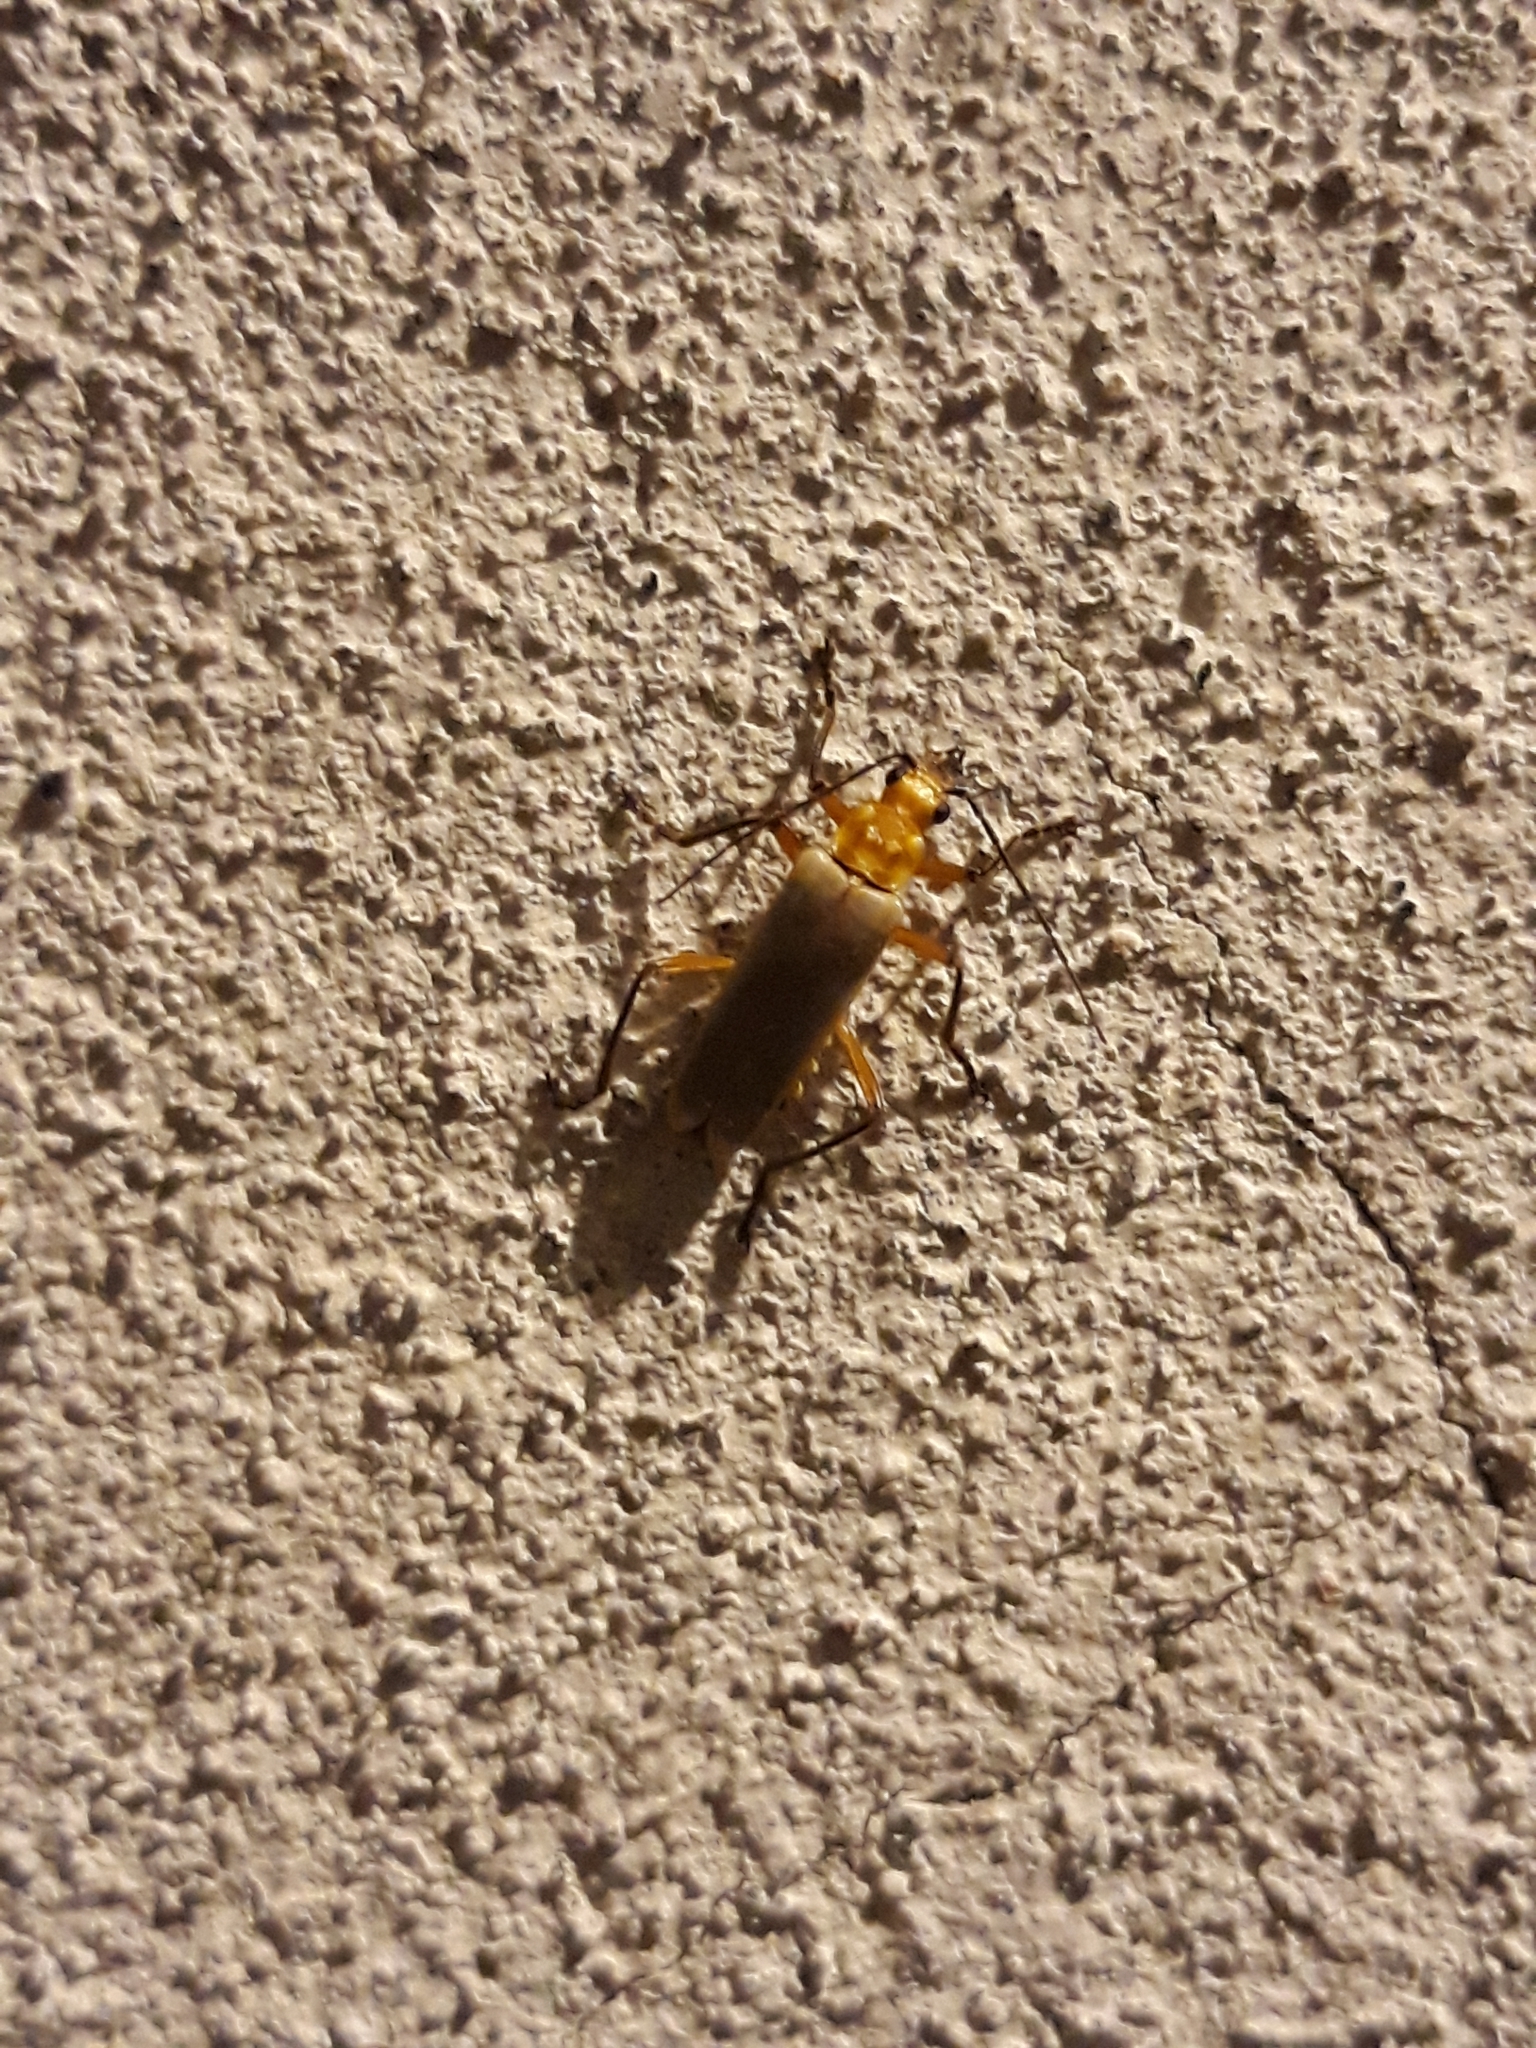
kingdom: Animalia
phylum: Arthropoda
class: Insecta
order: Coleoptera
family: Cantharidae
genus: Chauliognathus
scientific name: Chauliognathus
